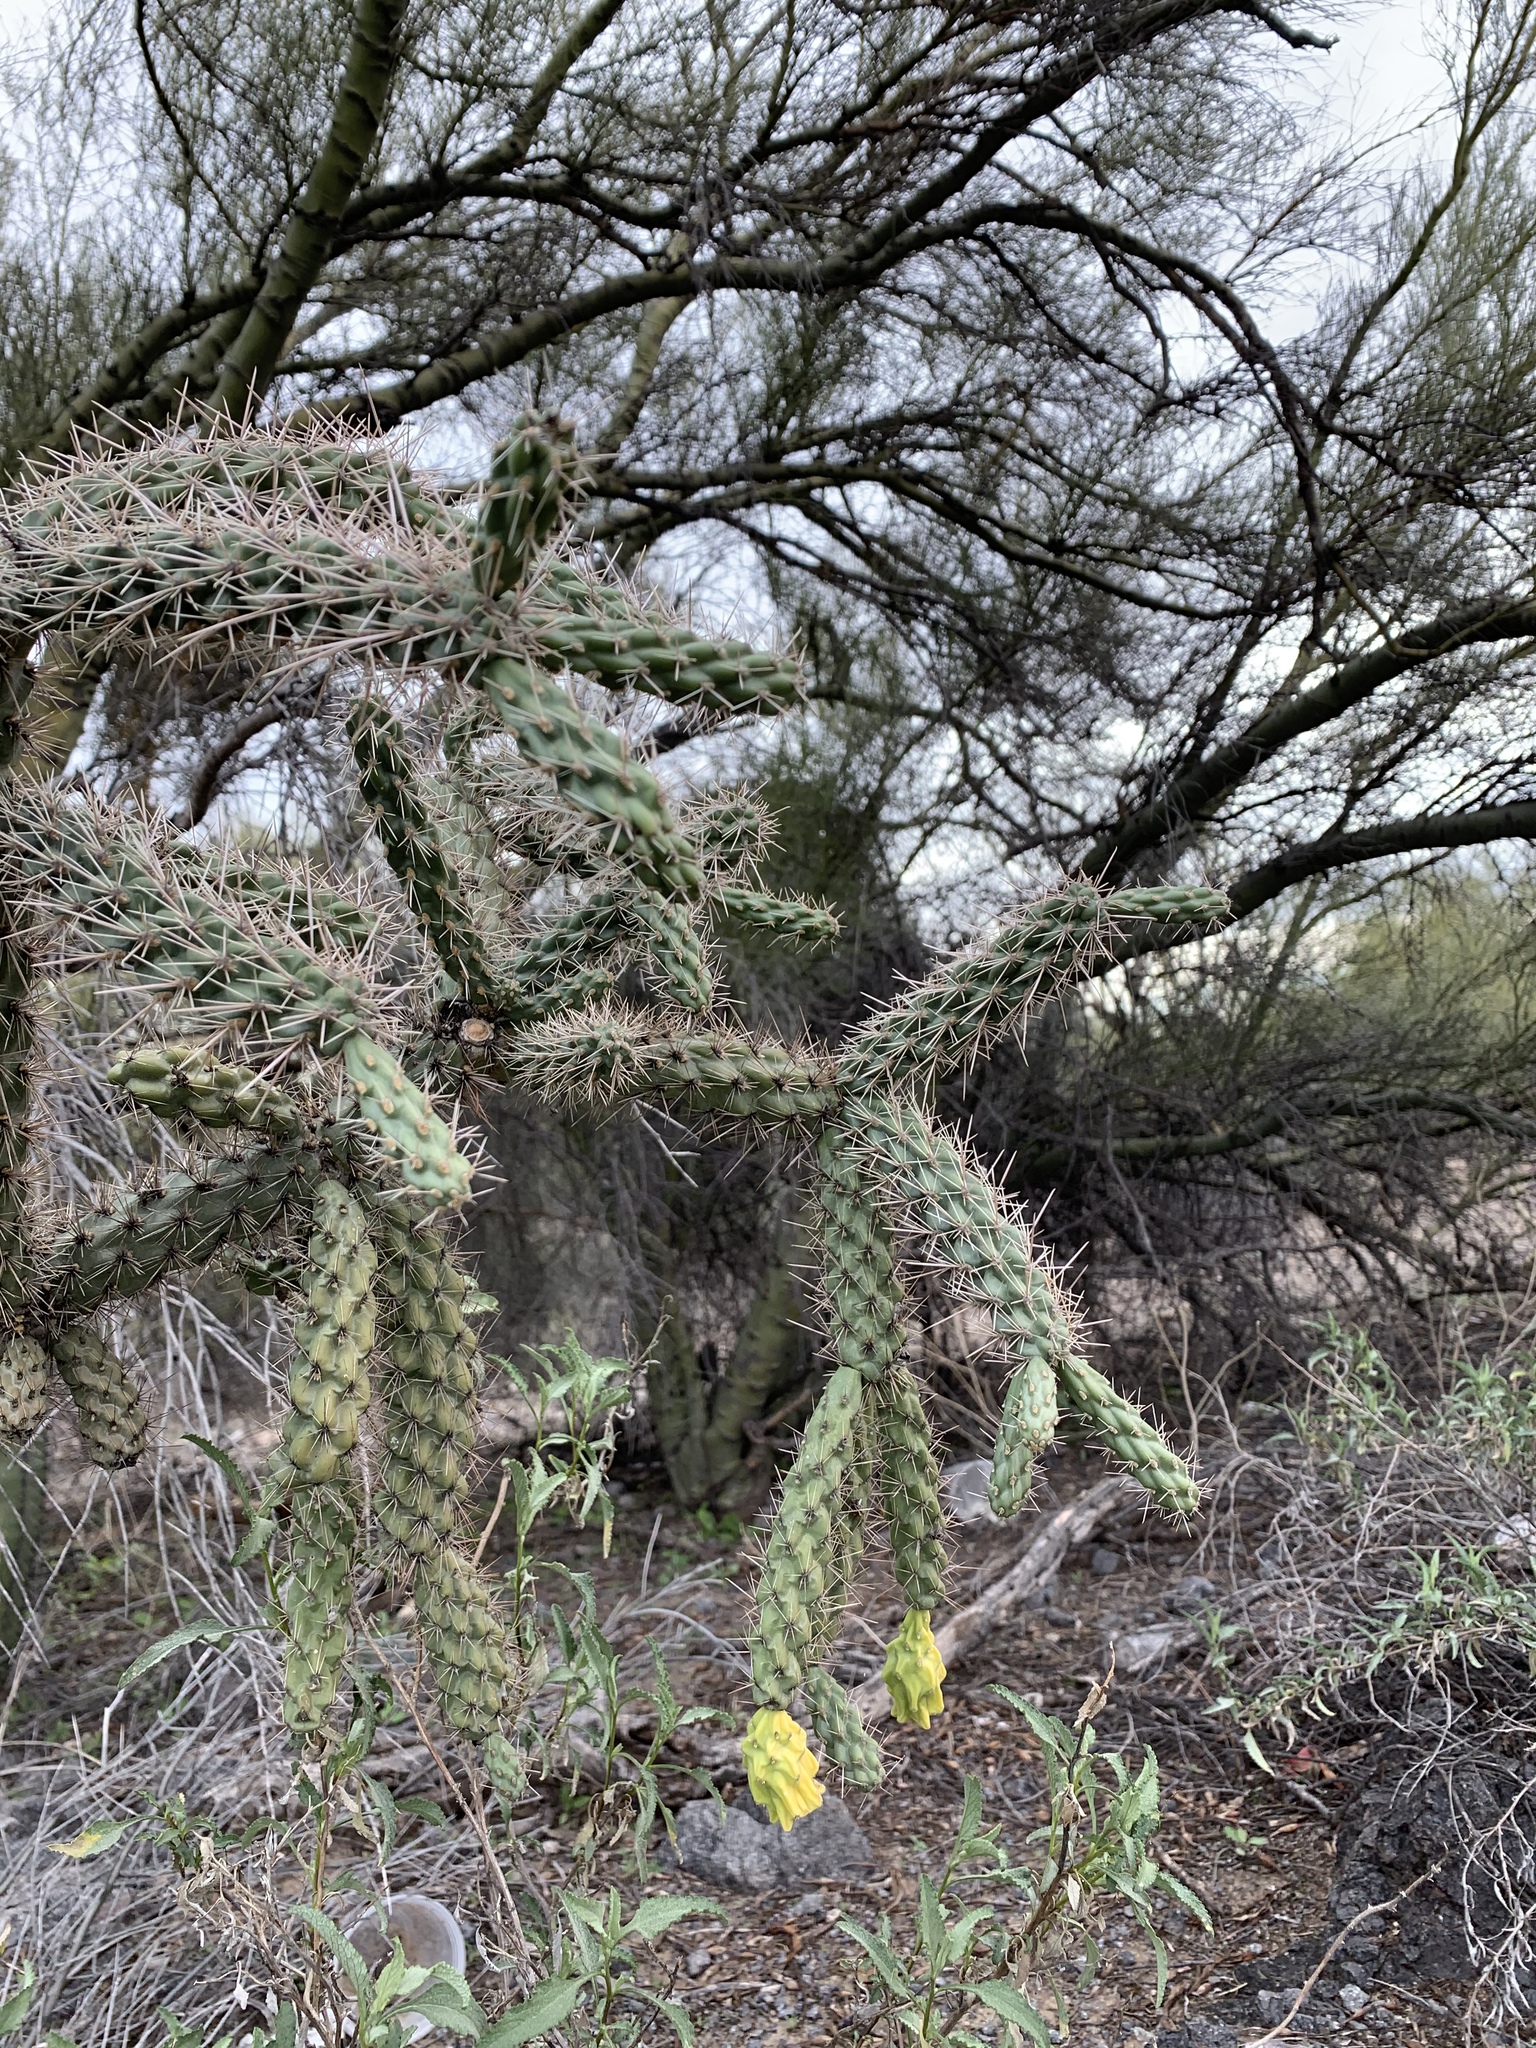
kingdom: Plantae
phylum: Tracheophyta
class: Magnoliopsida
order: Caryophyllales
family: Cactaceae
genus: Cylindropuntia
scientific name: Cylindropuntia imbricata
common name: Candelabrum cactus
